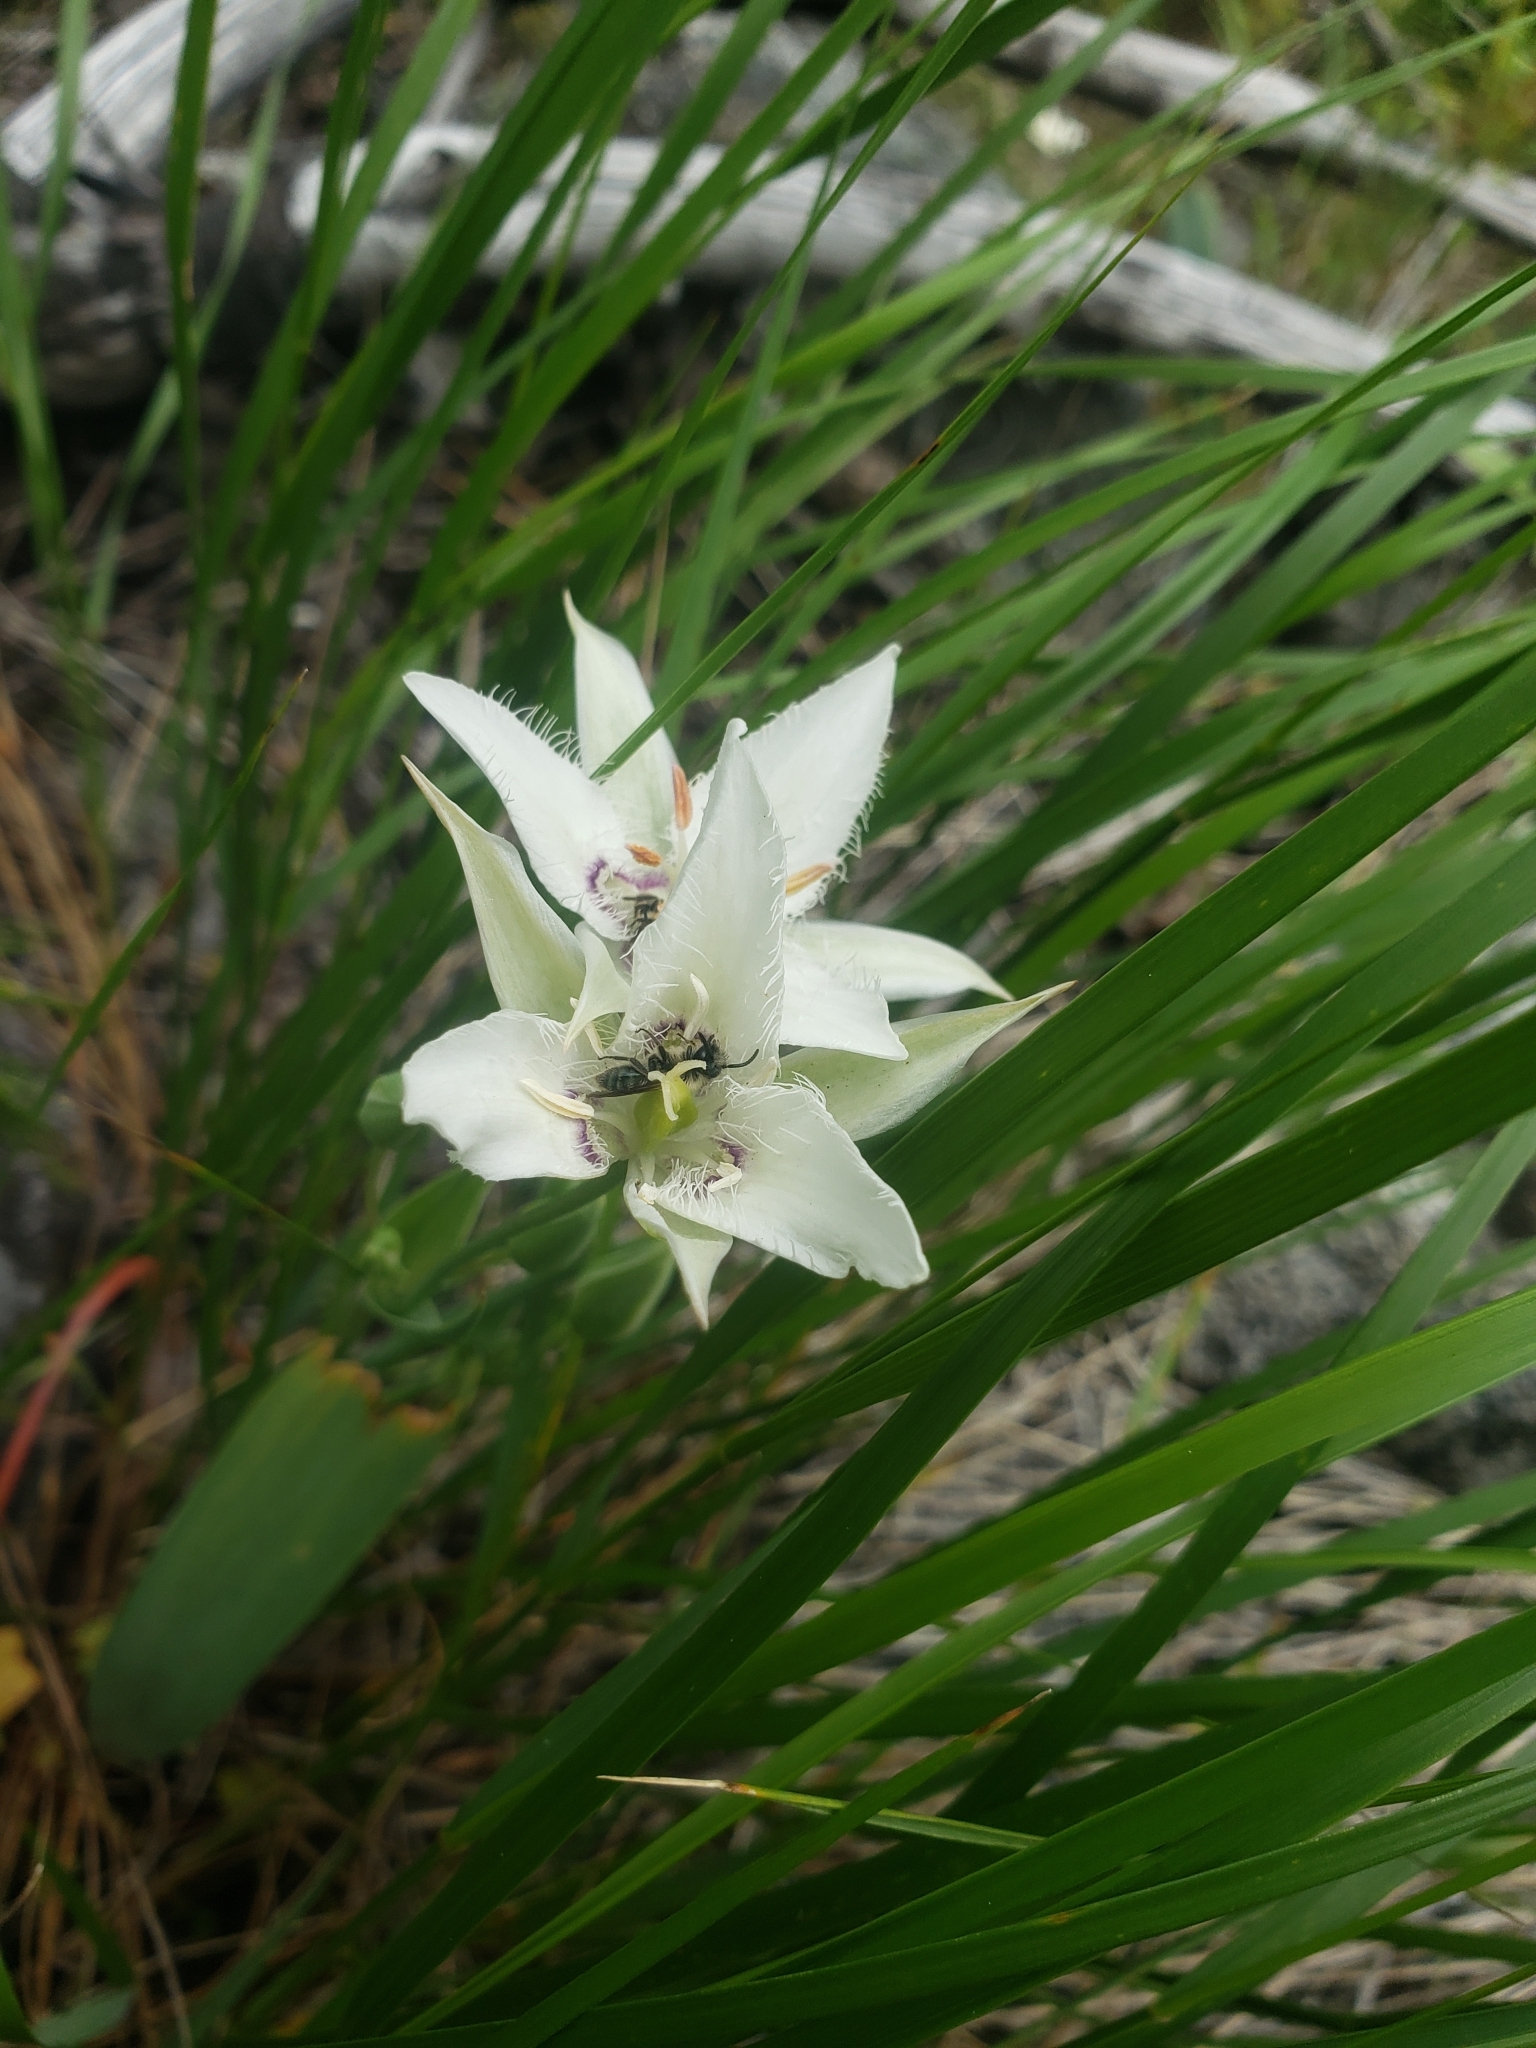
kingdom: Plantae
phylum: Tracheophyta
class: Liliopsida
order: Liliales
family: Liliaceae
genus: Calochortus
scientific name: Calochortus lyallii
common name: Lyall's mariposa lily
